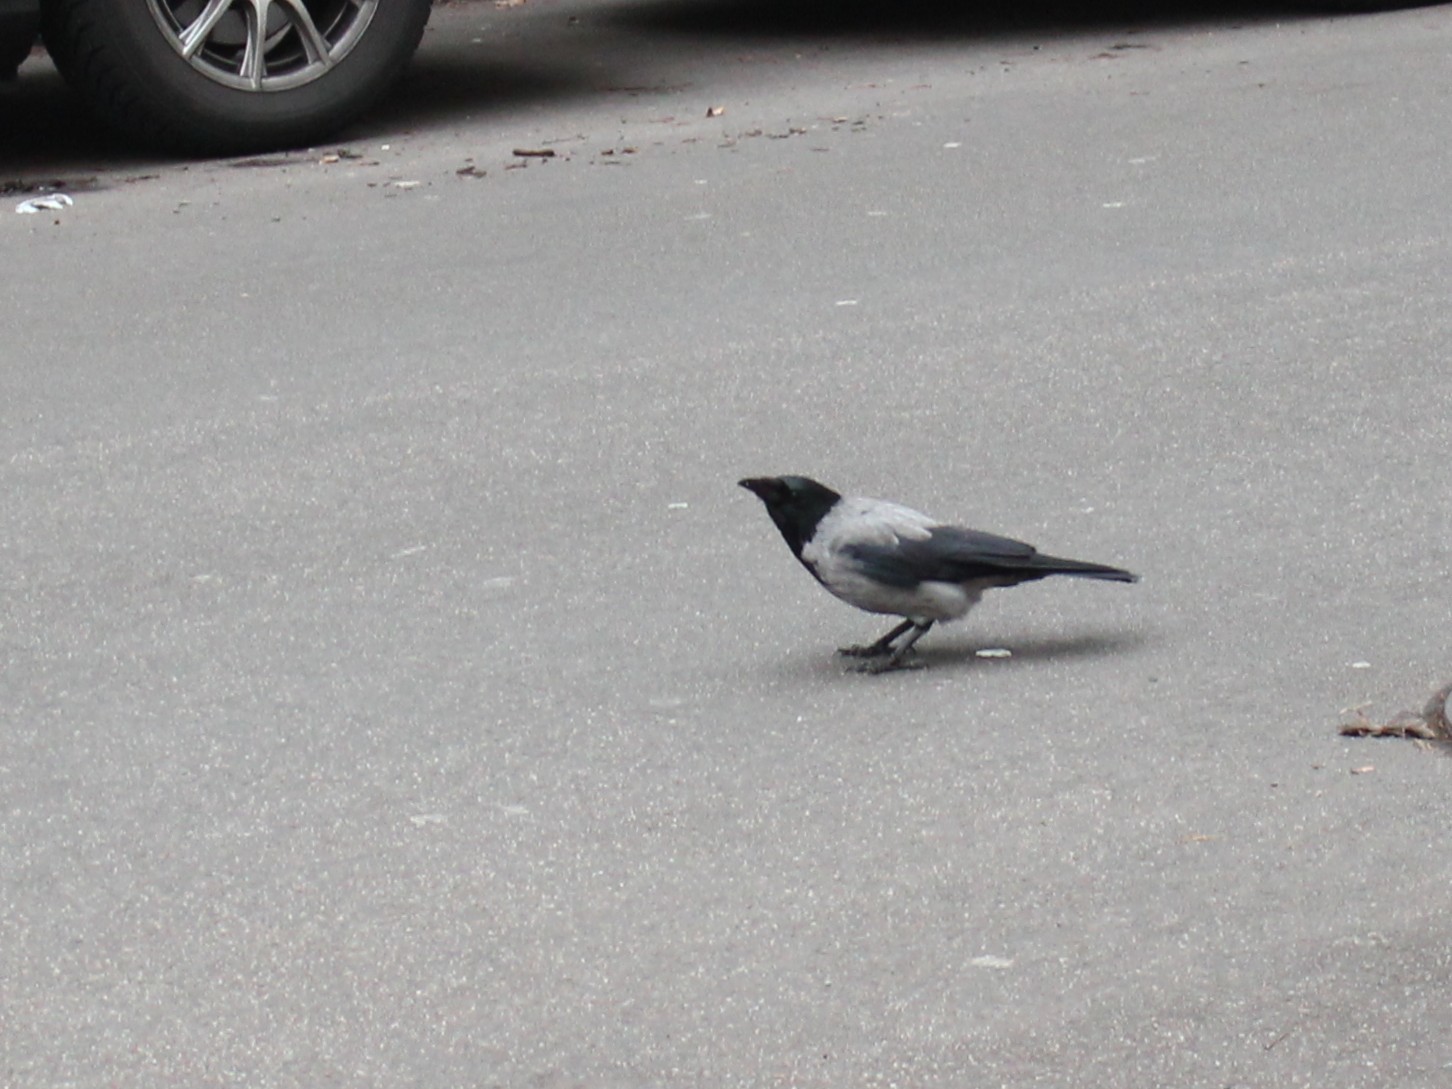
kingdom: Animalia
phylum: Chordata
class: Aves
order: Passeriformes
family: Corvidae
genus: Corvus
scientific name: Corvus cornix
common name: Hooded crow
